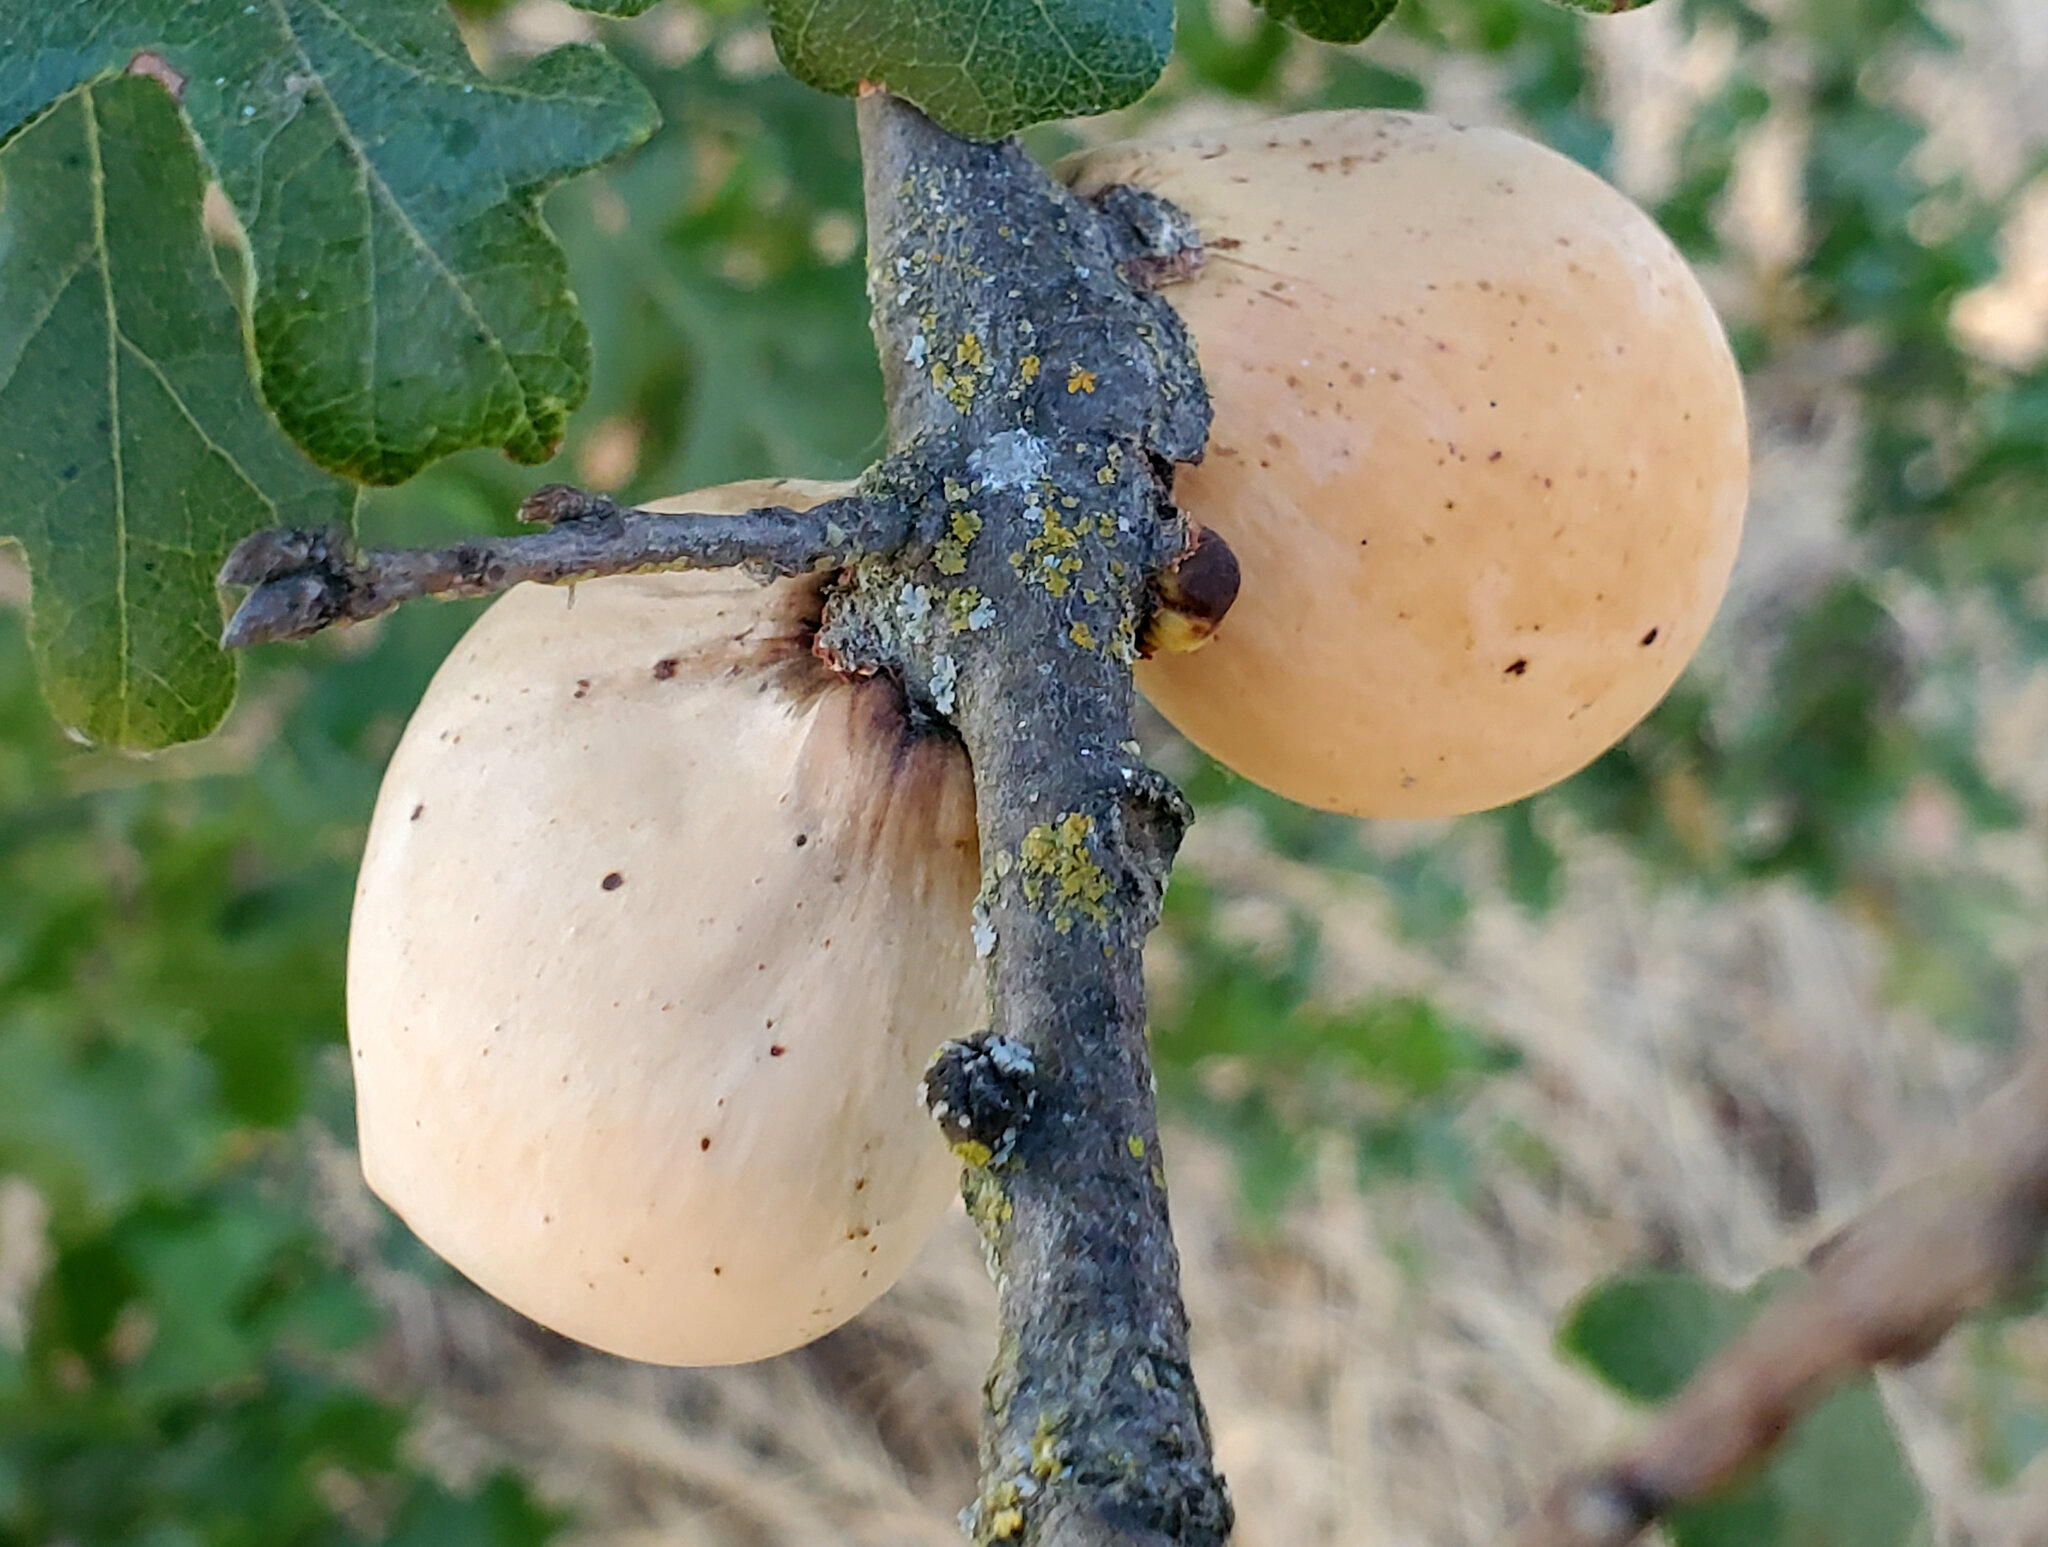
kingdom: Animalia
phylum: Arthropoda
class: Insecta
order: Hymenoptera
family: Cynipidae
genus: Andricus
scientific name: Andricus quercuscalifornicus
